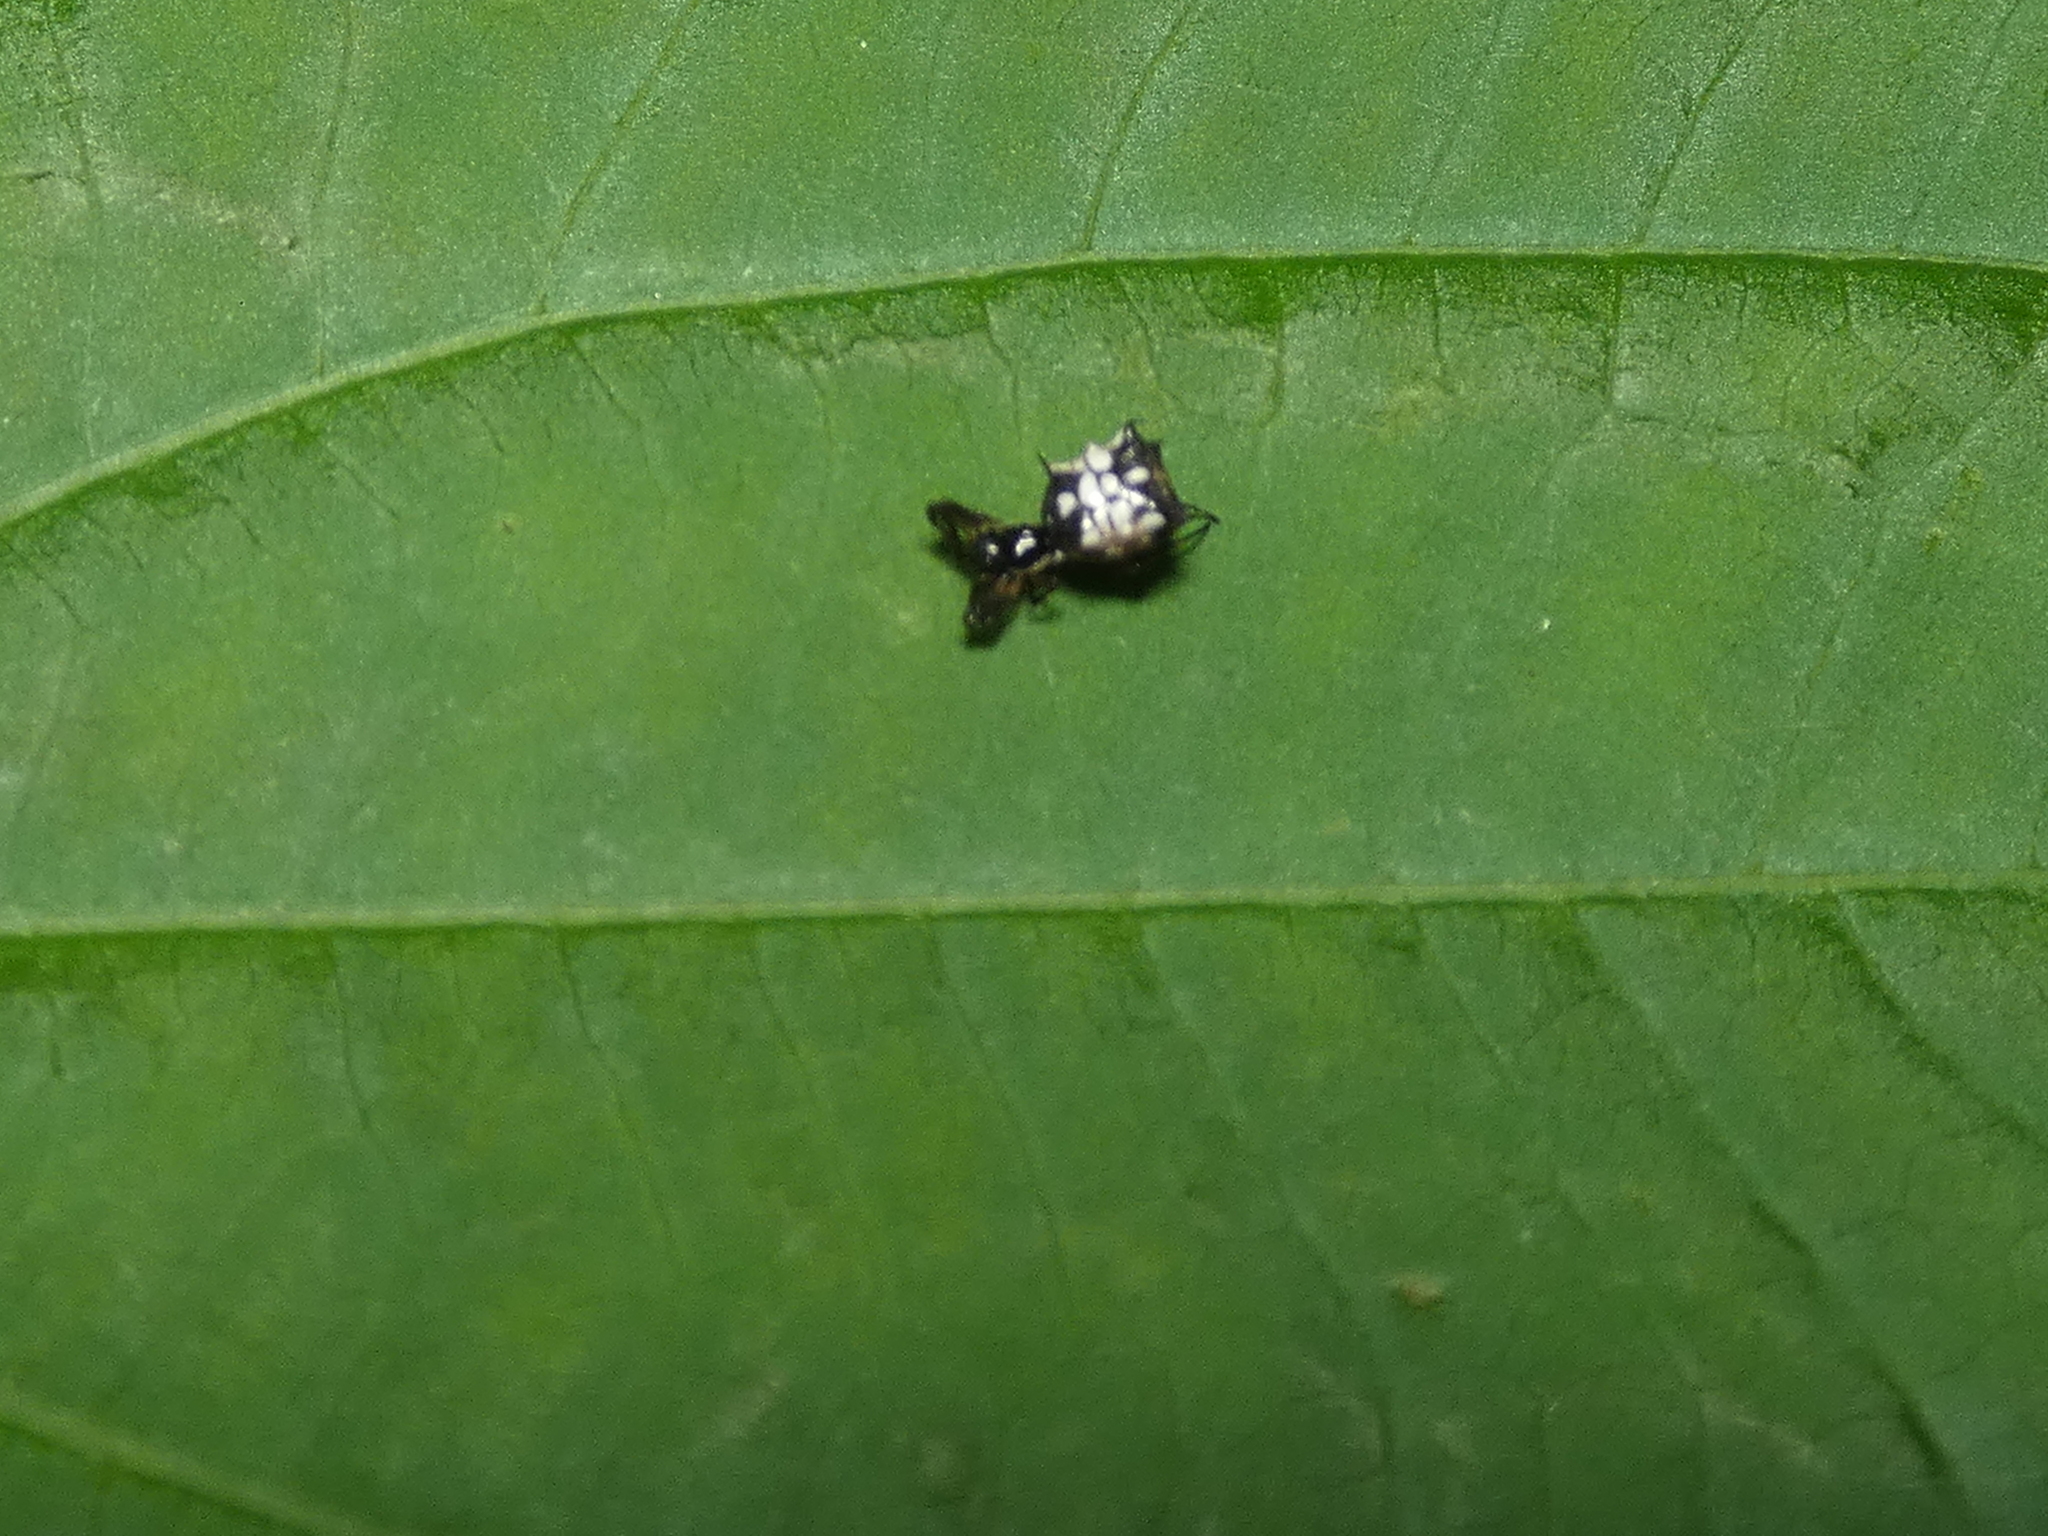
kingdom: Animalia
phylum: Arthropoda
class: Arachnida
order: Araneae
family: Araneidae
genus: Micrathena
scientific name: Micrathena picta
